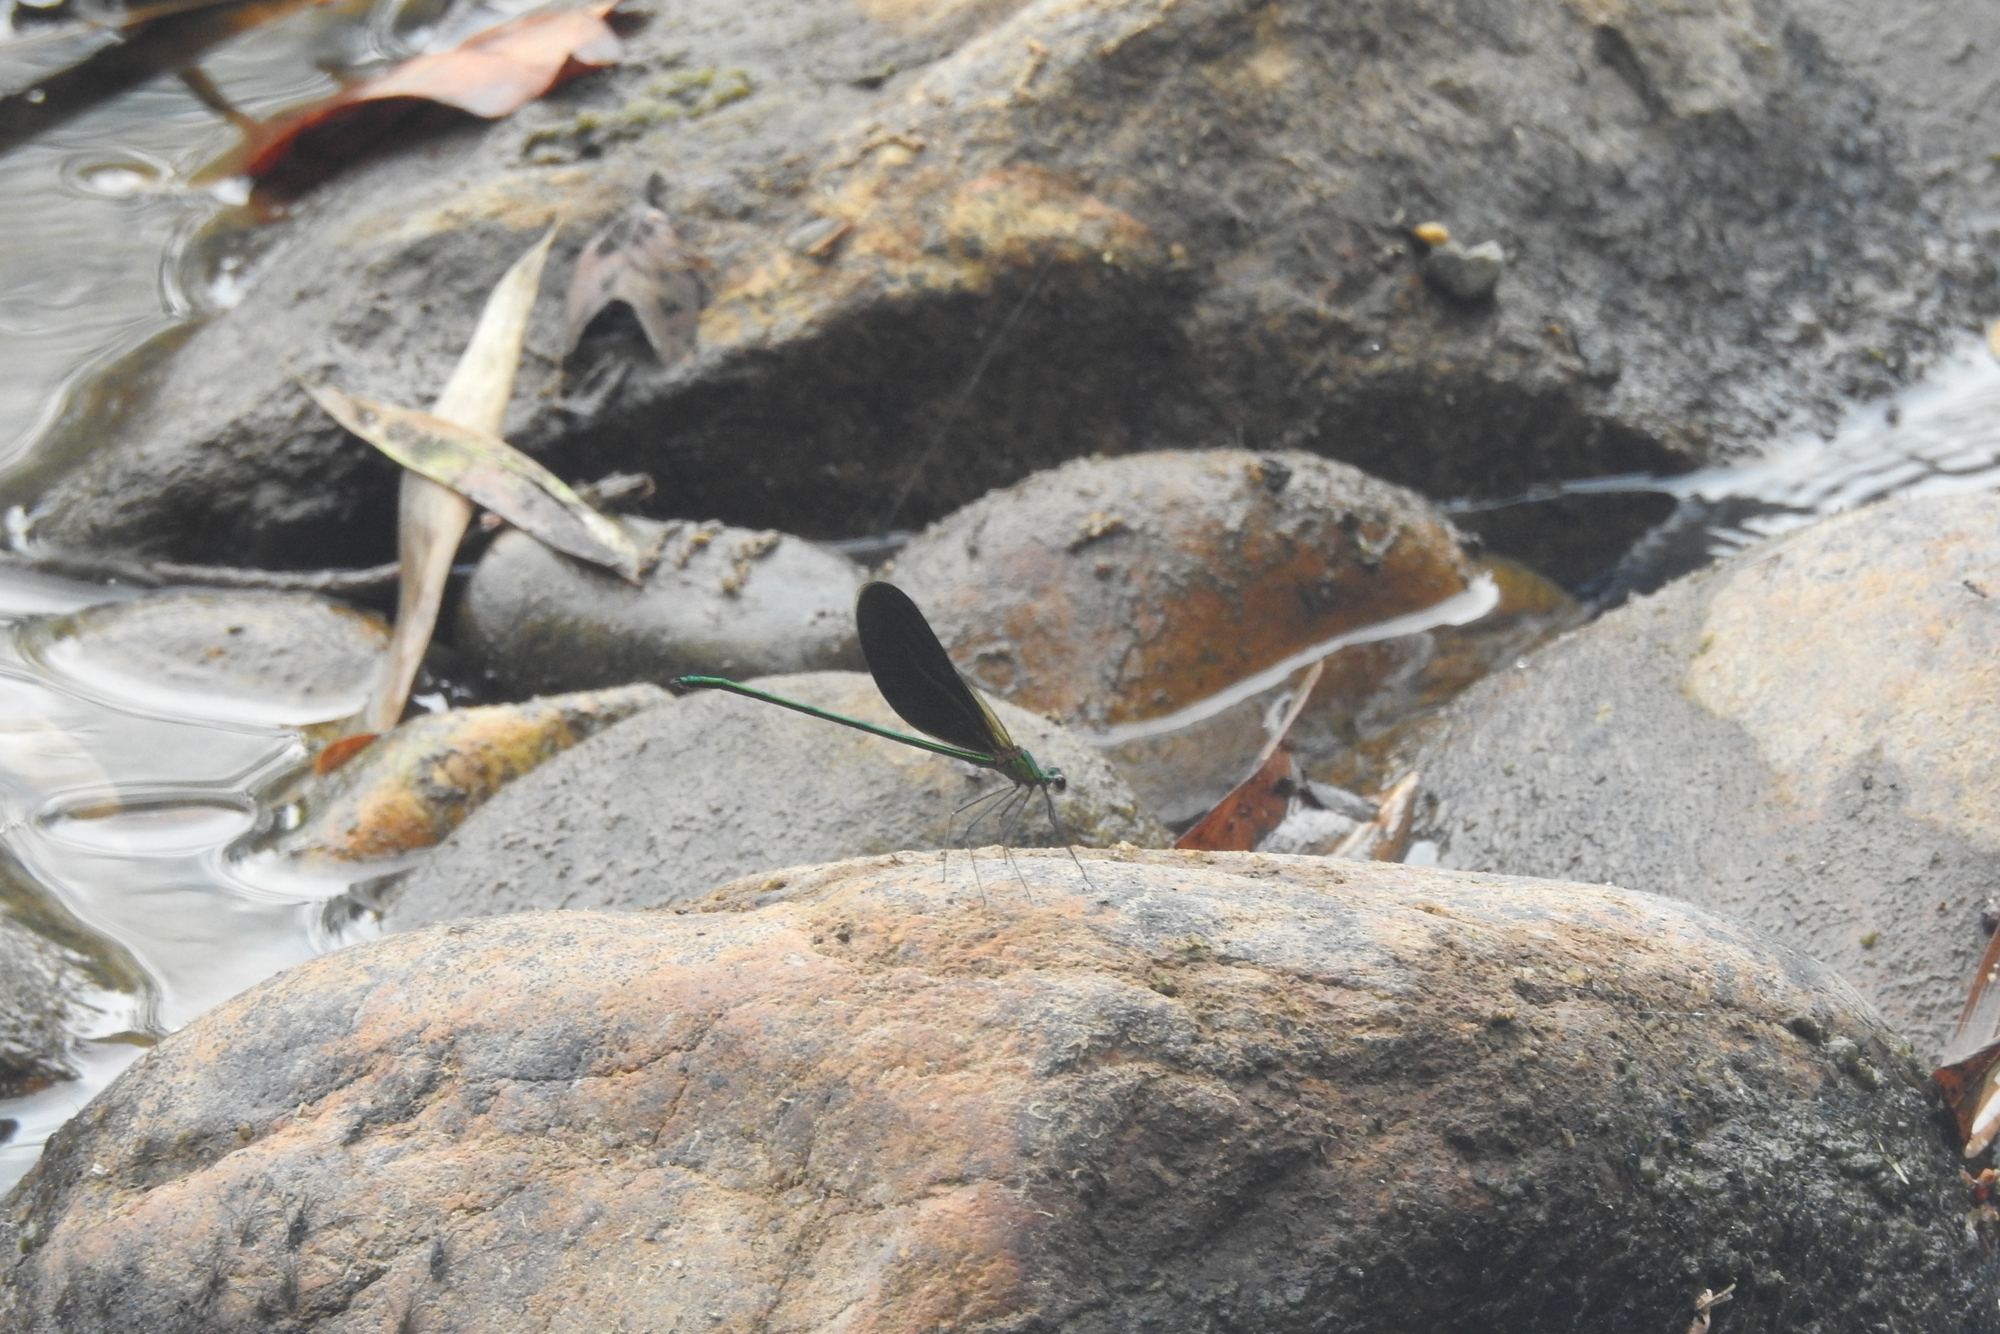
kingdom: Animalia
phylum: Arthropoda
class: Insecta
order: Odonata
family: Calopterygidae
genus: Neurobasis
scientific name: Neurobasis chinensis
